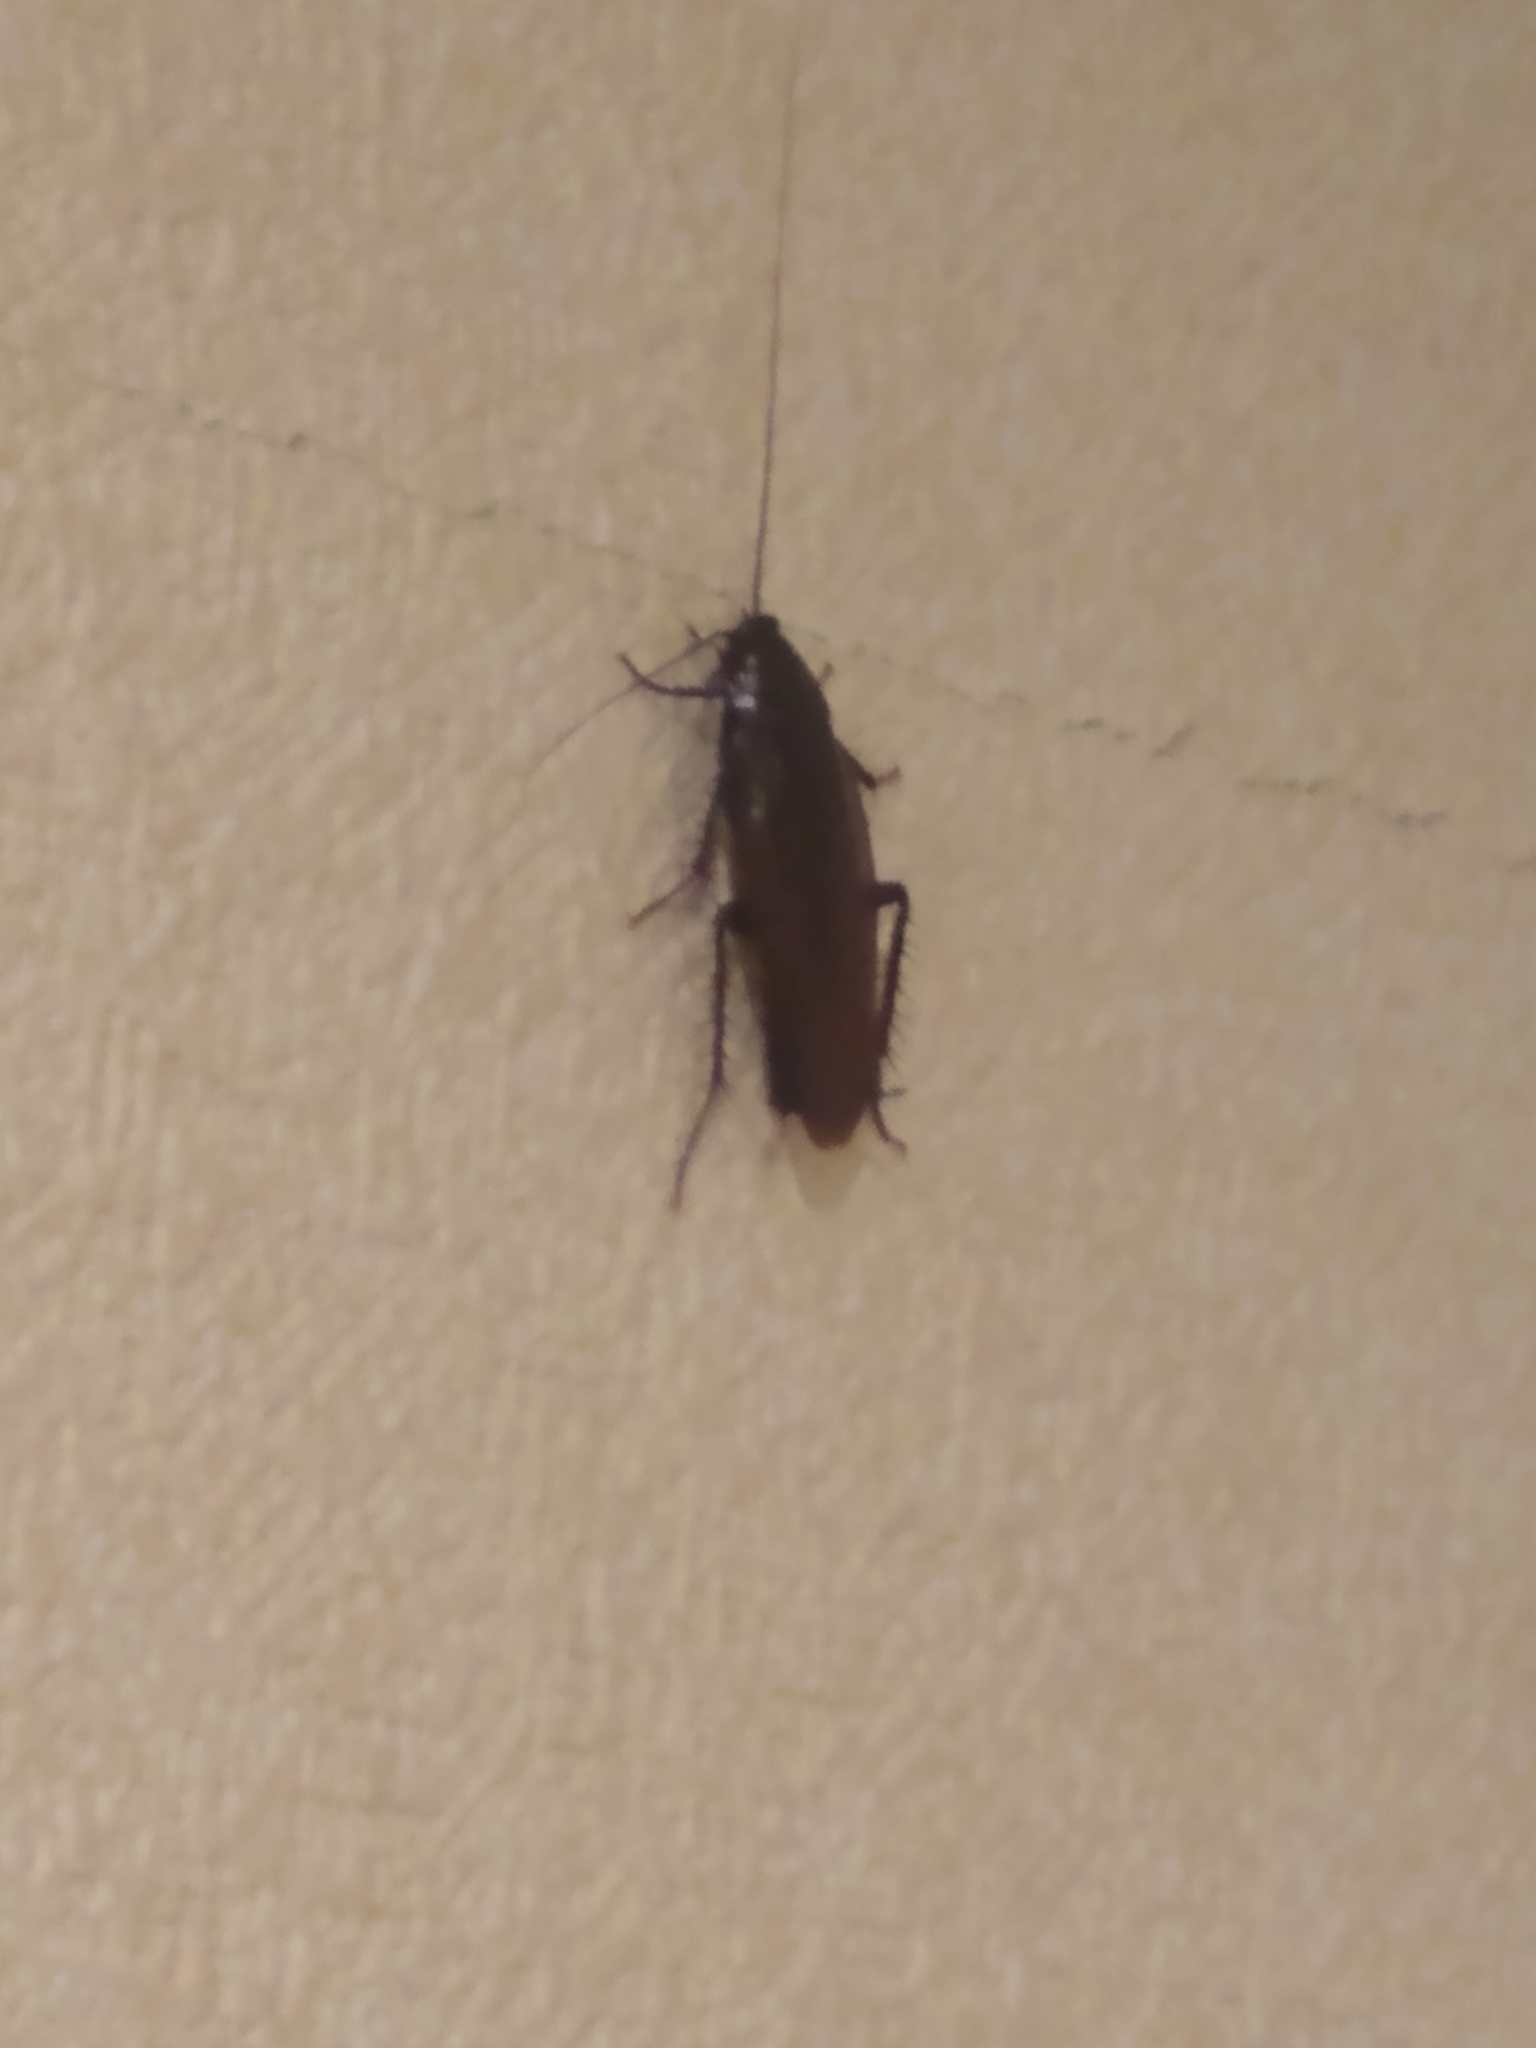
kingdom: Animalia
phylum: Arthropoda
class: Insecta
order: Blattodea
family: Blattidae
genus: Periplaneta
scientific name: Periplaneta fuliginosa
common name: Smokeybrown cockroad
